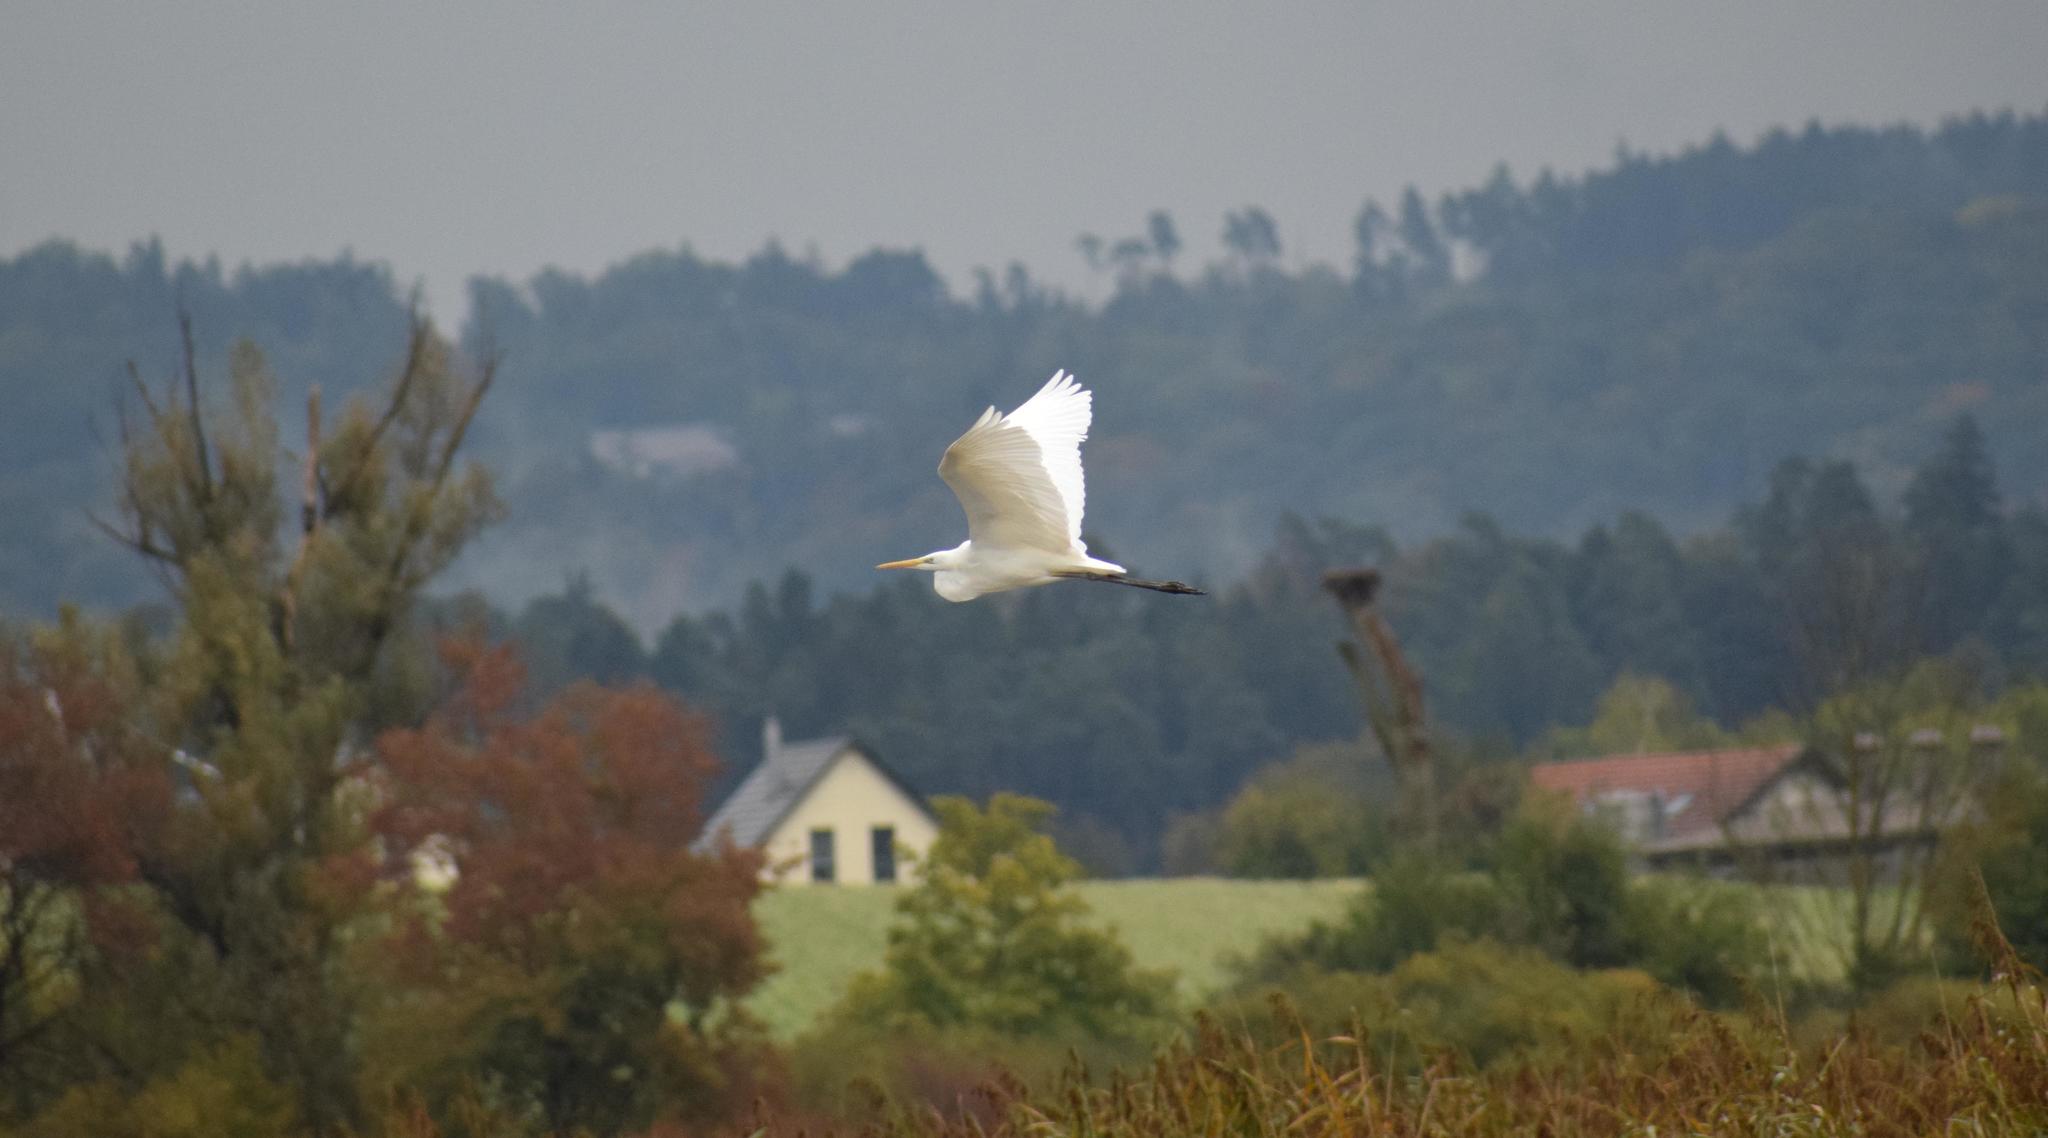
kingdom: Animalia
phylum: Chordata
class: Aves
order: Pelecaniformes
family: Ardeidae
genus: Ardea
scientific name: Ardea alba
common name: Great egret
